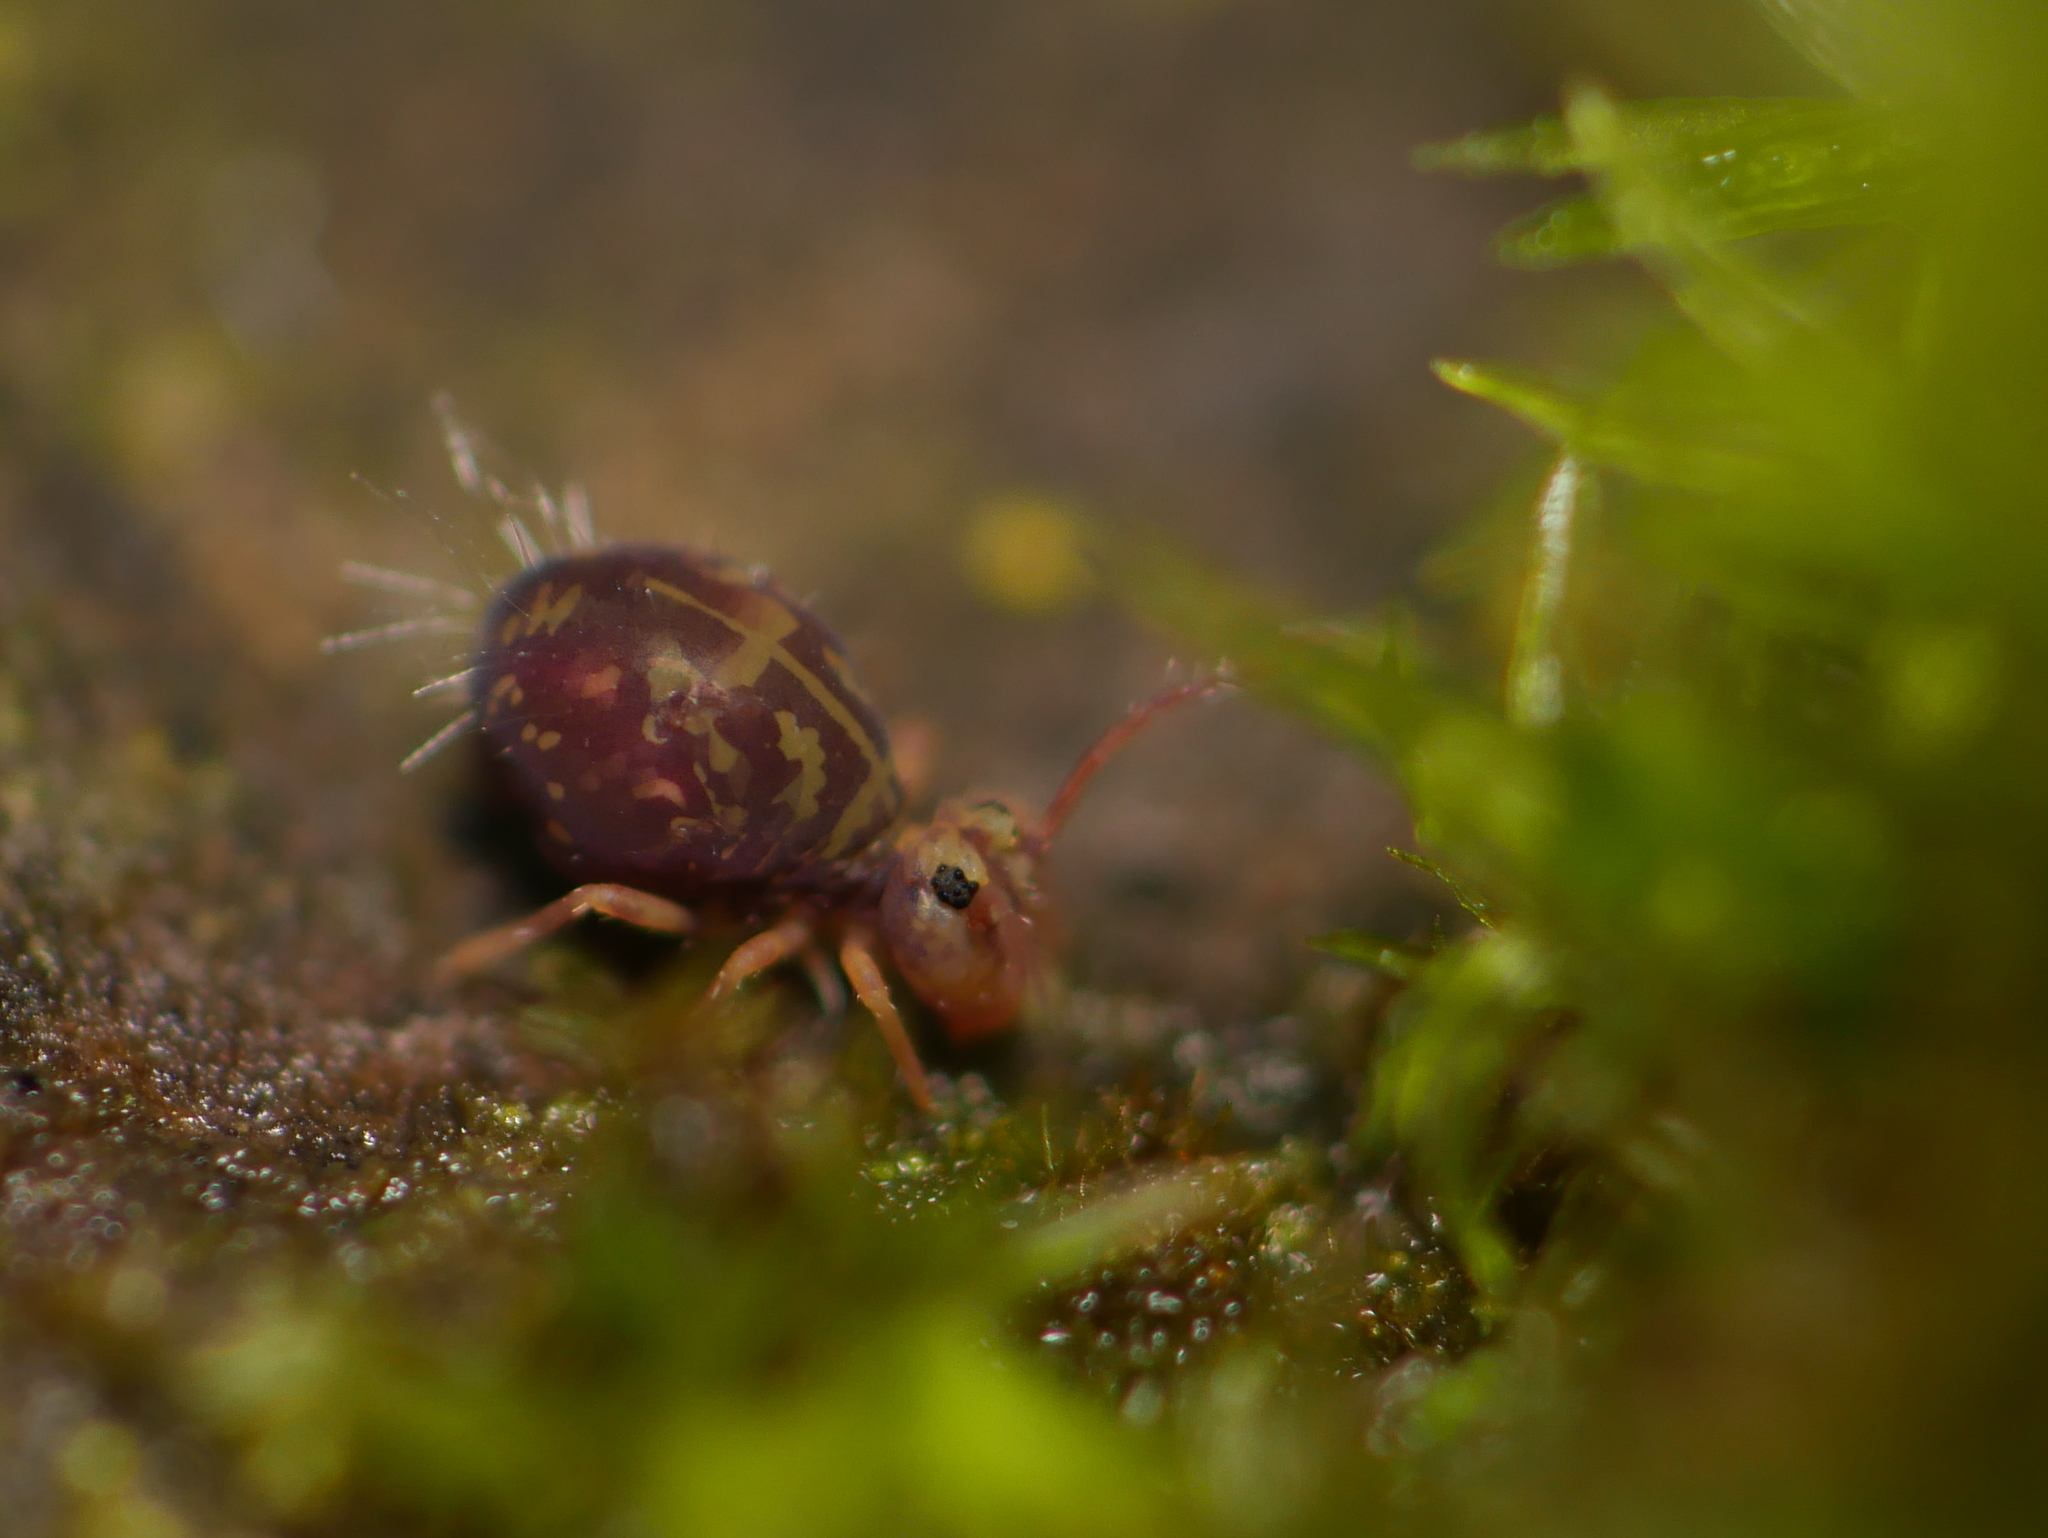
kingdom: Animalia
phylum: Arthropoda
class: Collembola
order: Symphypleona
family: Dicyrtomidae
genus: Dicyrtomina
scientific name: Dicyrtomina ornata
